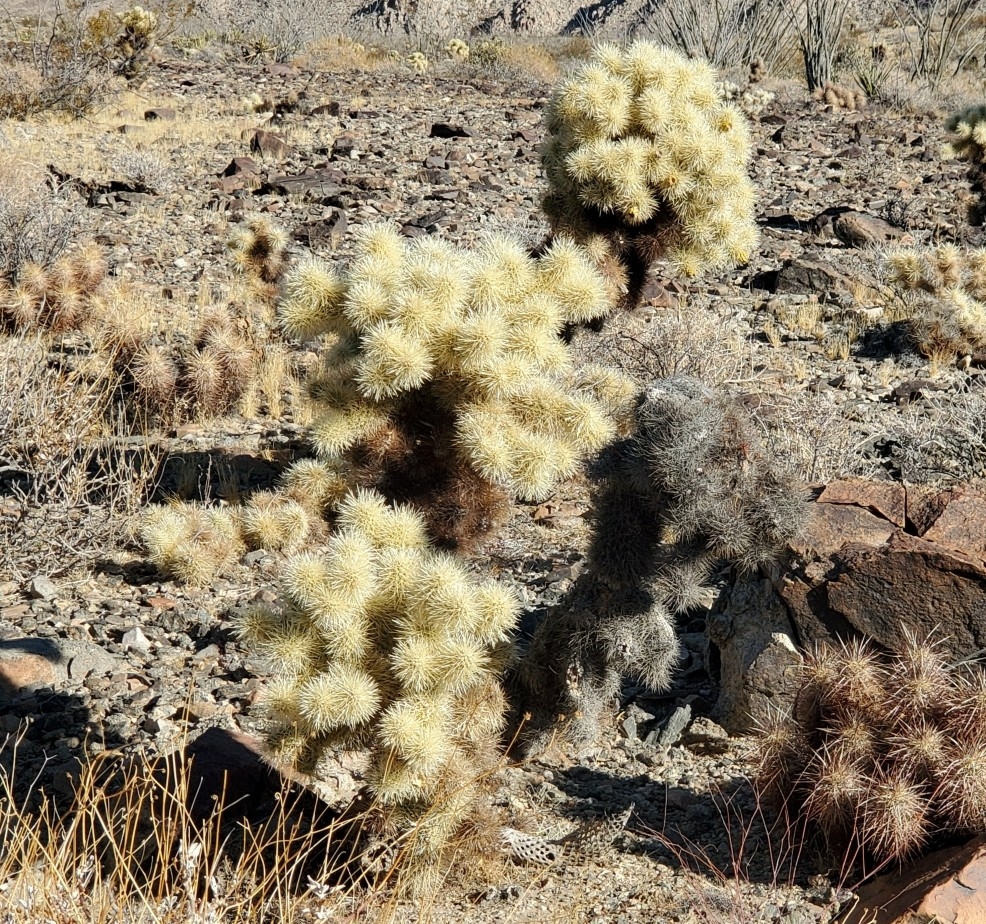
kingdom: Plantae
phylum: Tracheophyta
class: Magnoliopsida
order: Caryophyllales
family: Cactaceae
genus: Cylindropuntia
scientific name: Cylindropuntia fosbergii
